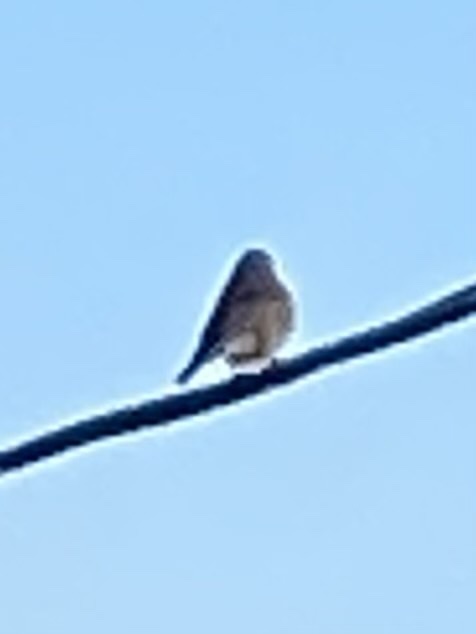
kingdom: Animalia
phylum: Chordata
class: Aves
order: Passeriformes
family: Turdidae
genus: Sialia
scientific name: Sialia sialis
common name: Eastern bluebird
